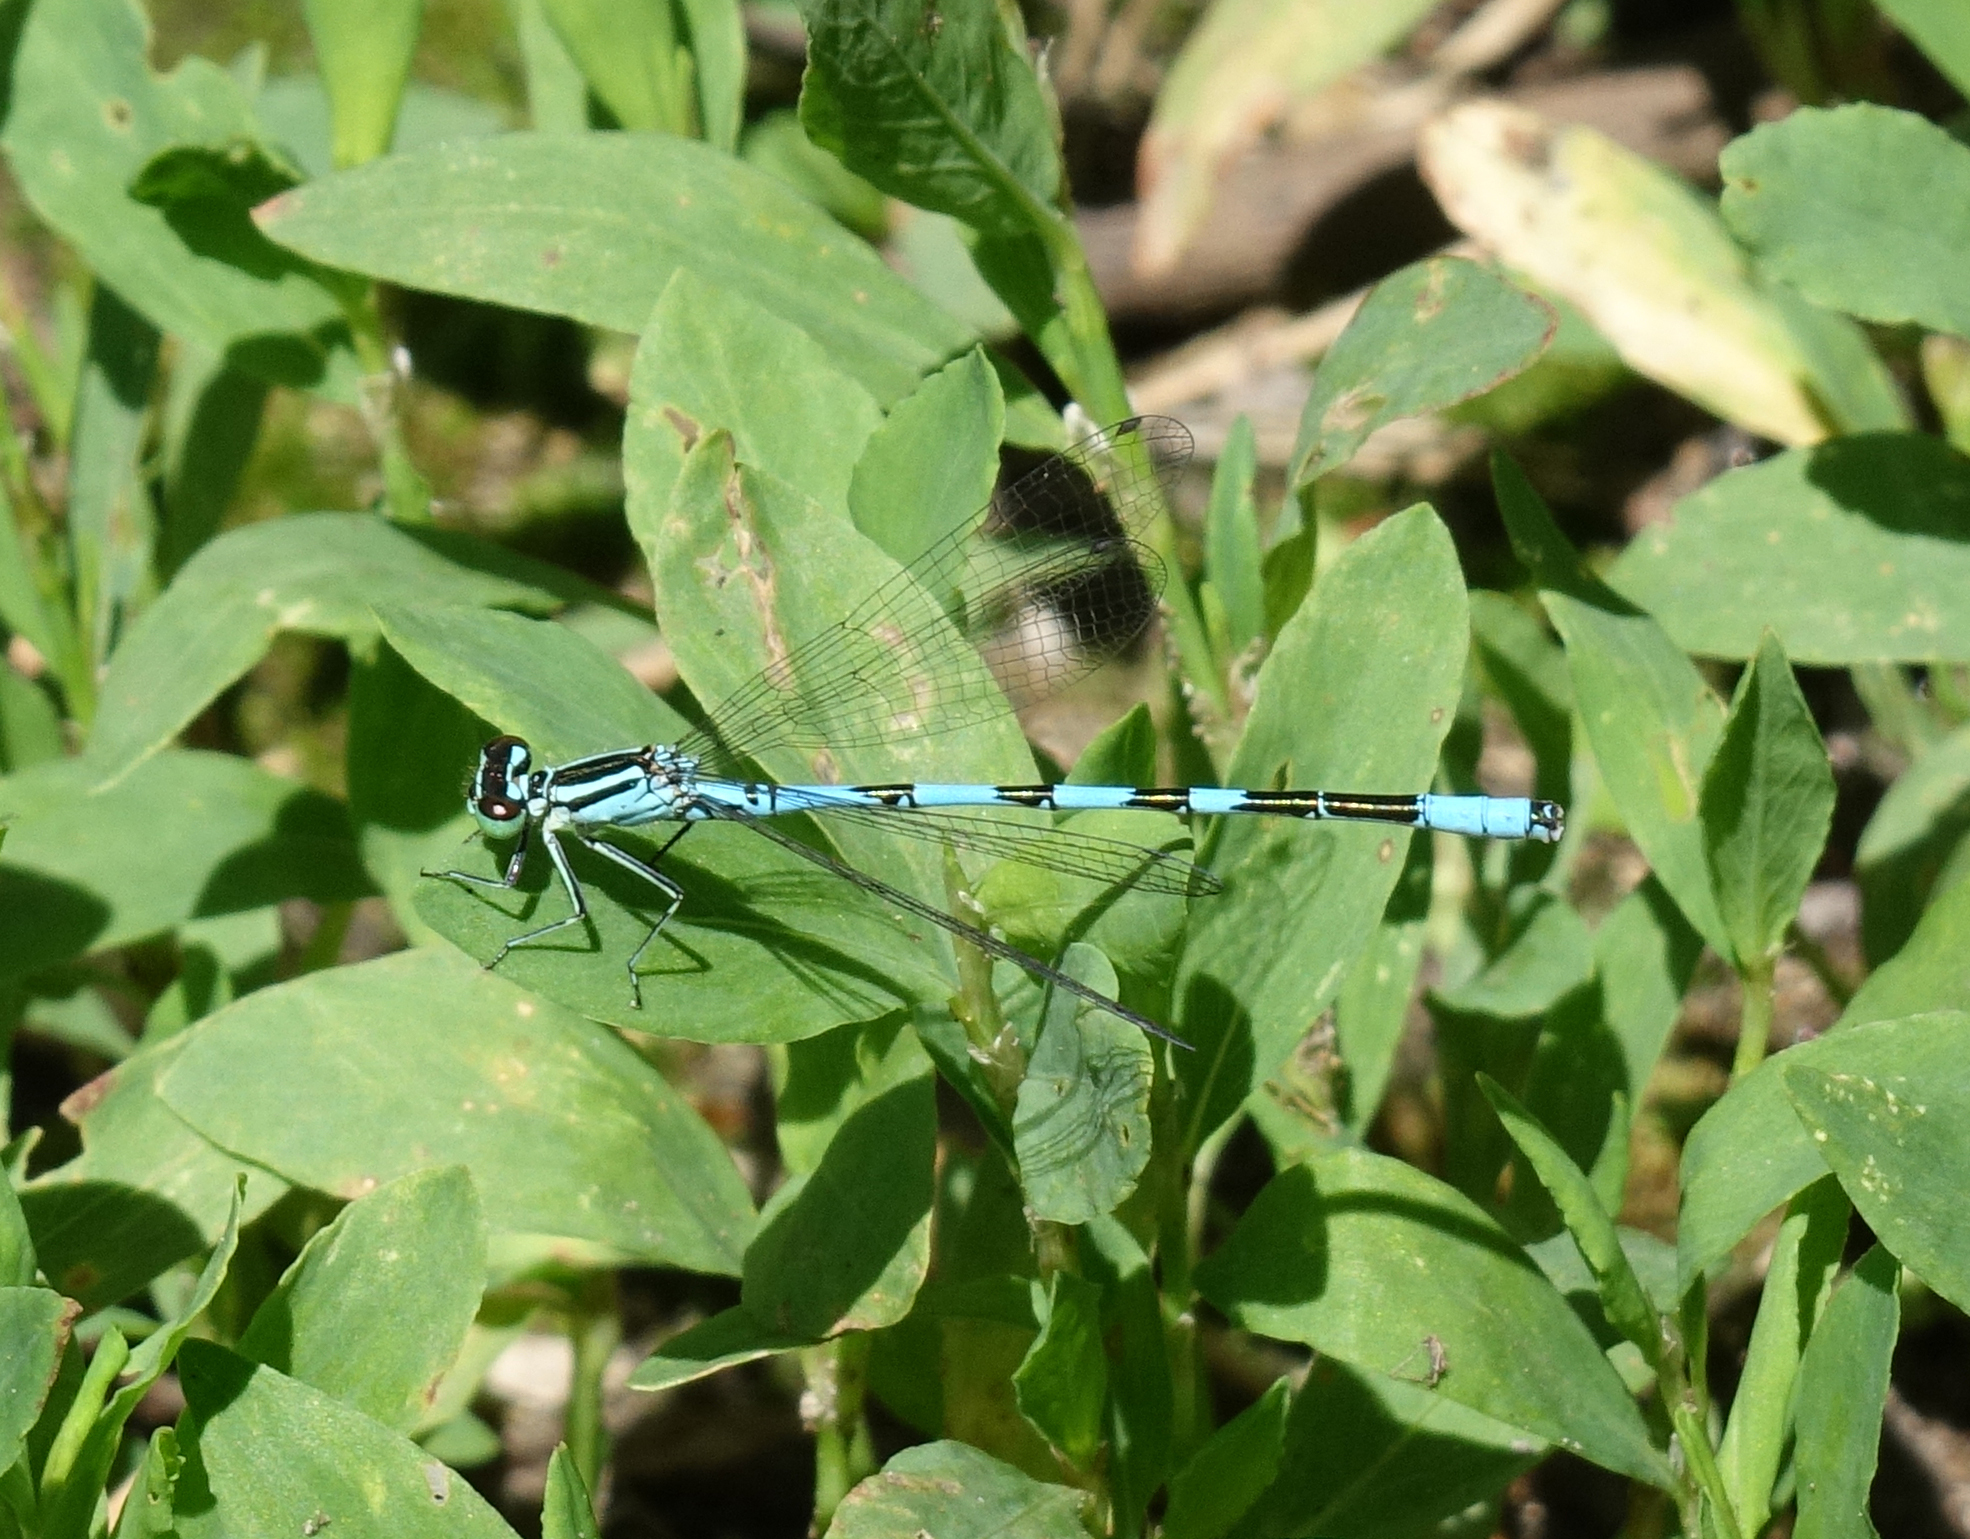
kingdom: Animalia
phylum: Arthropoda
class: Insecta
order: Odonata
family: Coenagrionidae
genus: Coenagrion
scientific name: Coenagrion hastulatum
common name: Spearhead bluet
